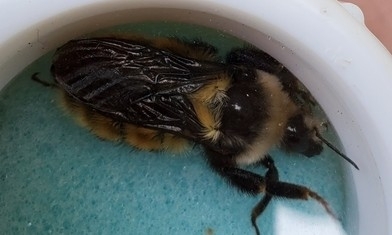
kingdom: Animalia
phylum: Arthropoda
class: Insecta
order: Hymenoptera
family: Apidae
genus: Bombus
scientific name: Bombus appositus
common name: White-shouldered bumble bee
